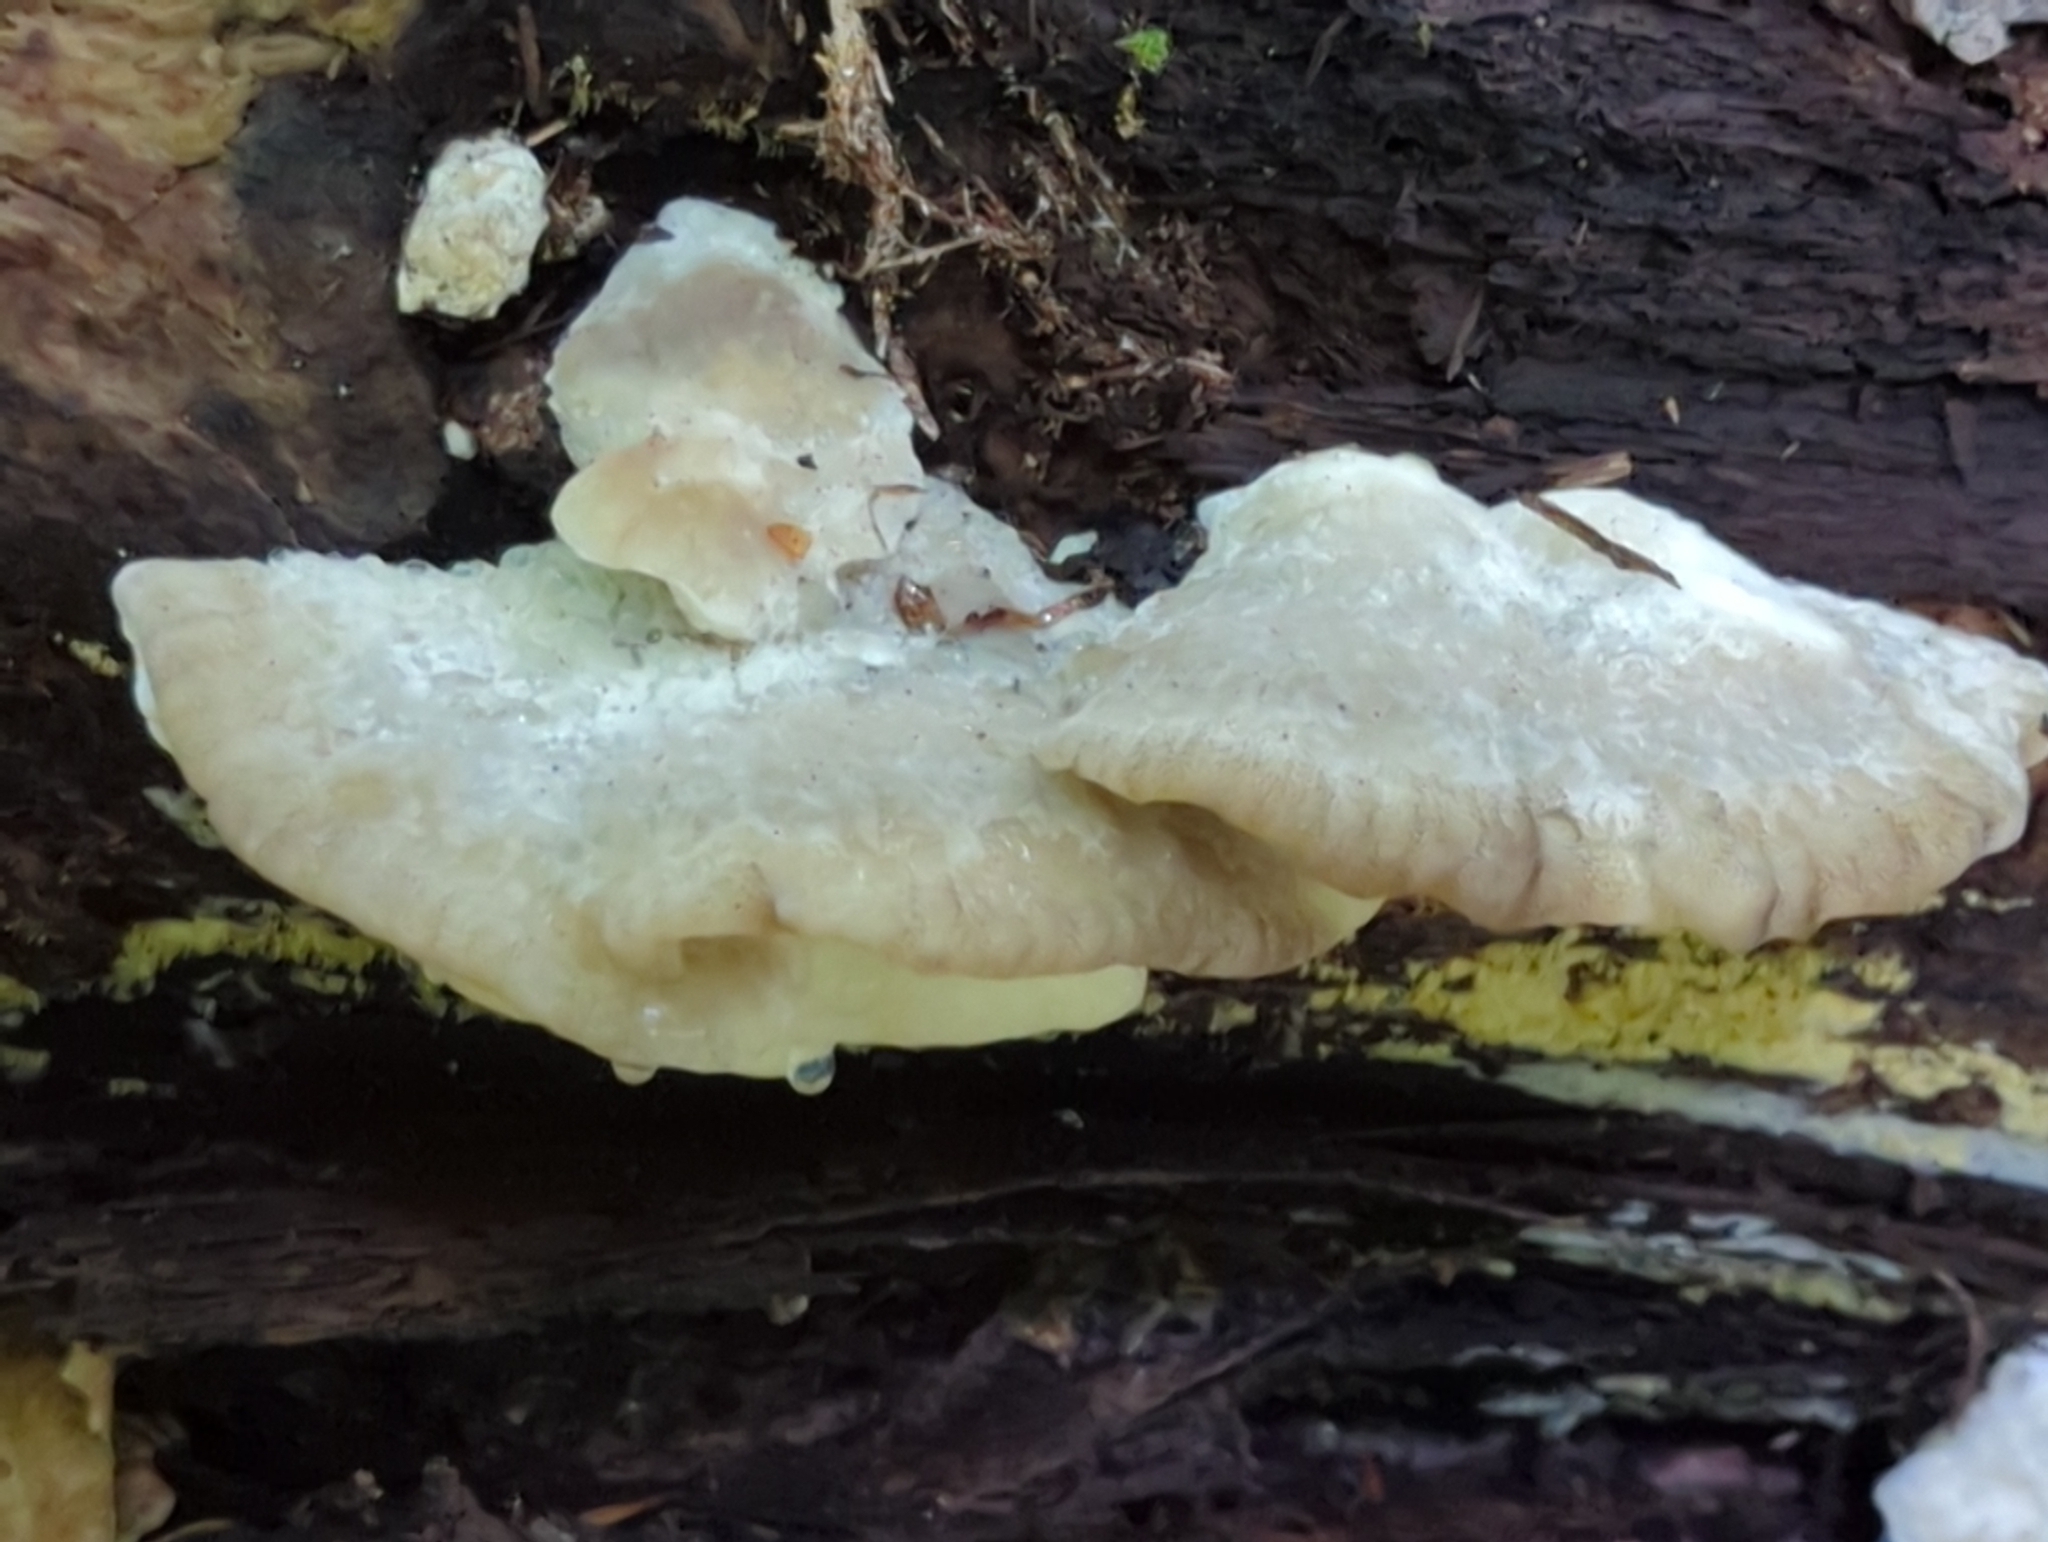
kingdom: Fungi
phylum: Basidiomycota
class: Agaricomycetes
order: Polyporales
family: Incrustoporiaceae
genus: Tyromyces
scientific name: Tyromyces galactinus
